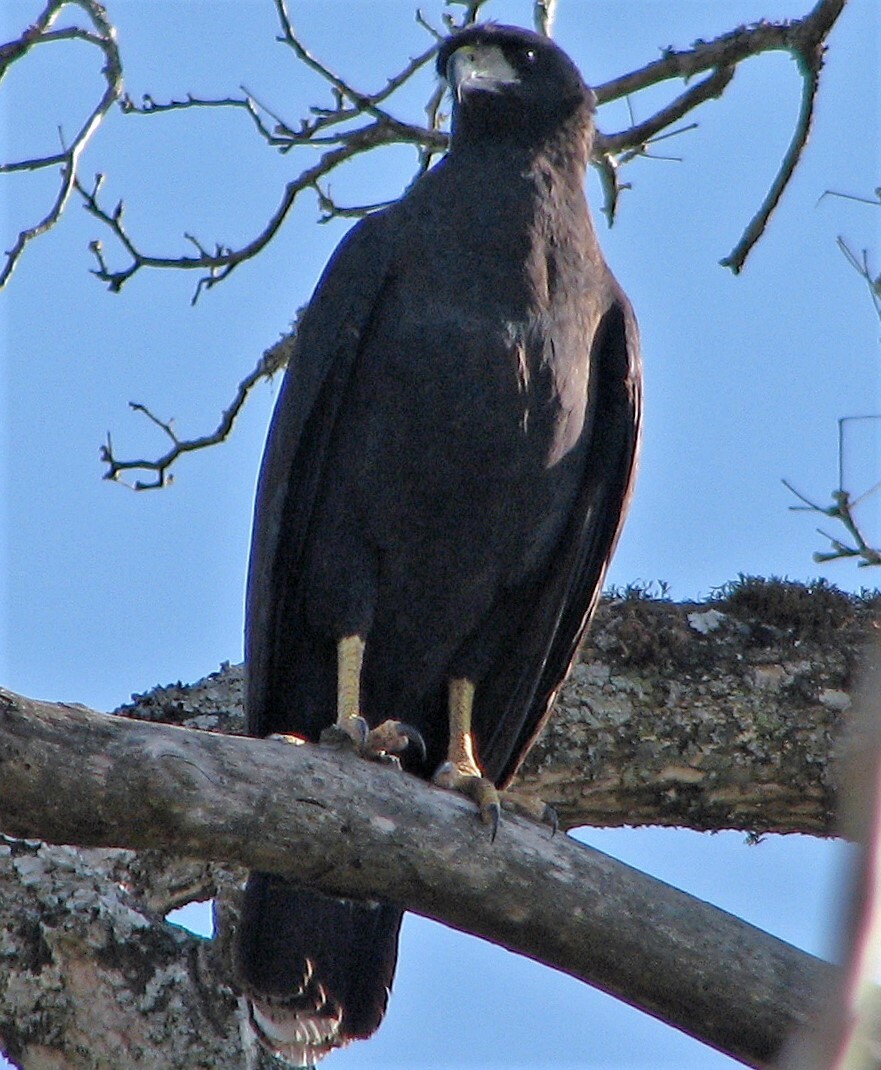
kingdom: Animalia
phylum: Chordata
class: Aves
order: Accipitriformes
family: Accipitridae
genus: Buteogallus
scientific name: Buteogallus urubitinga
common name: Great black hawk
